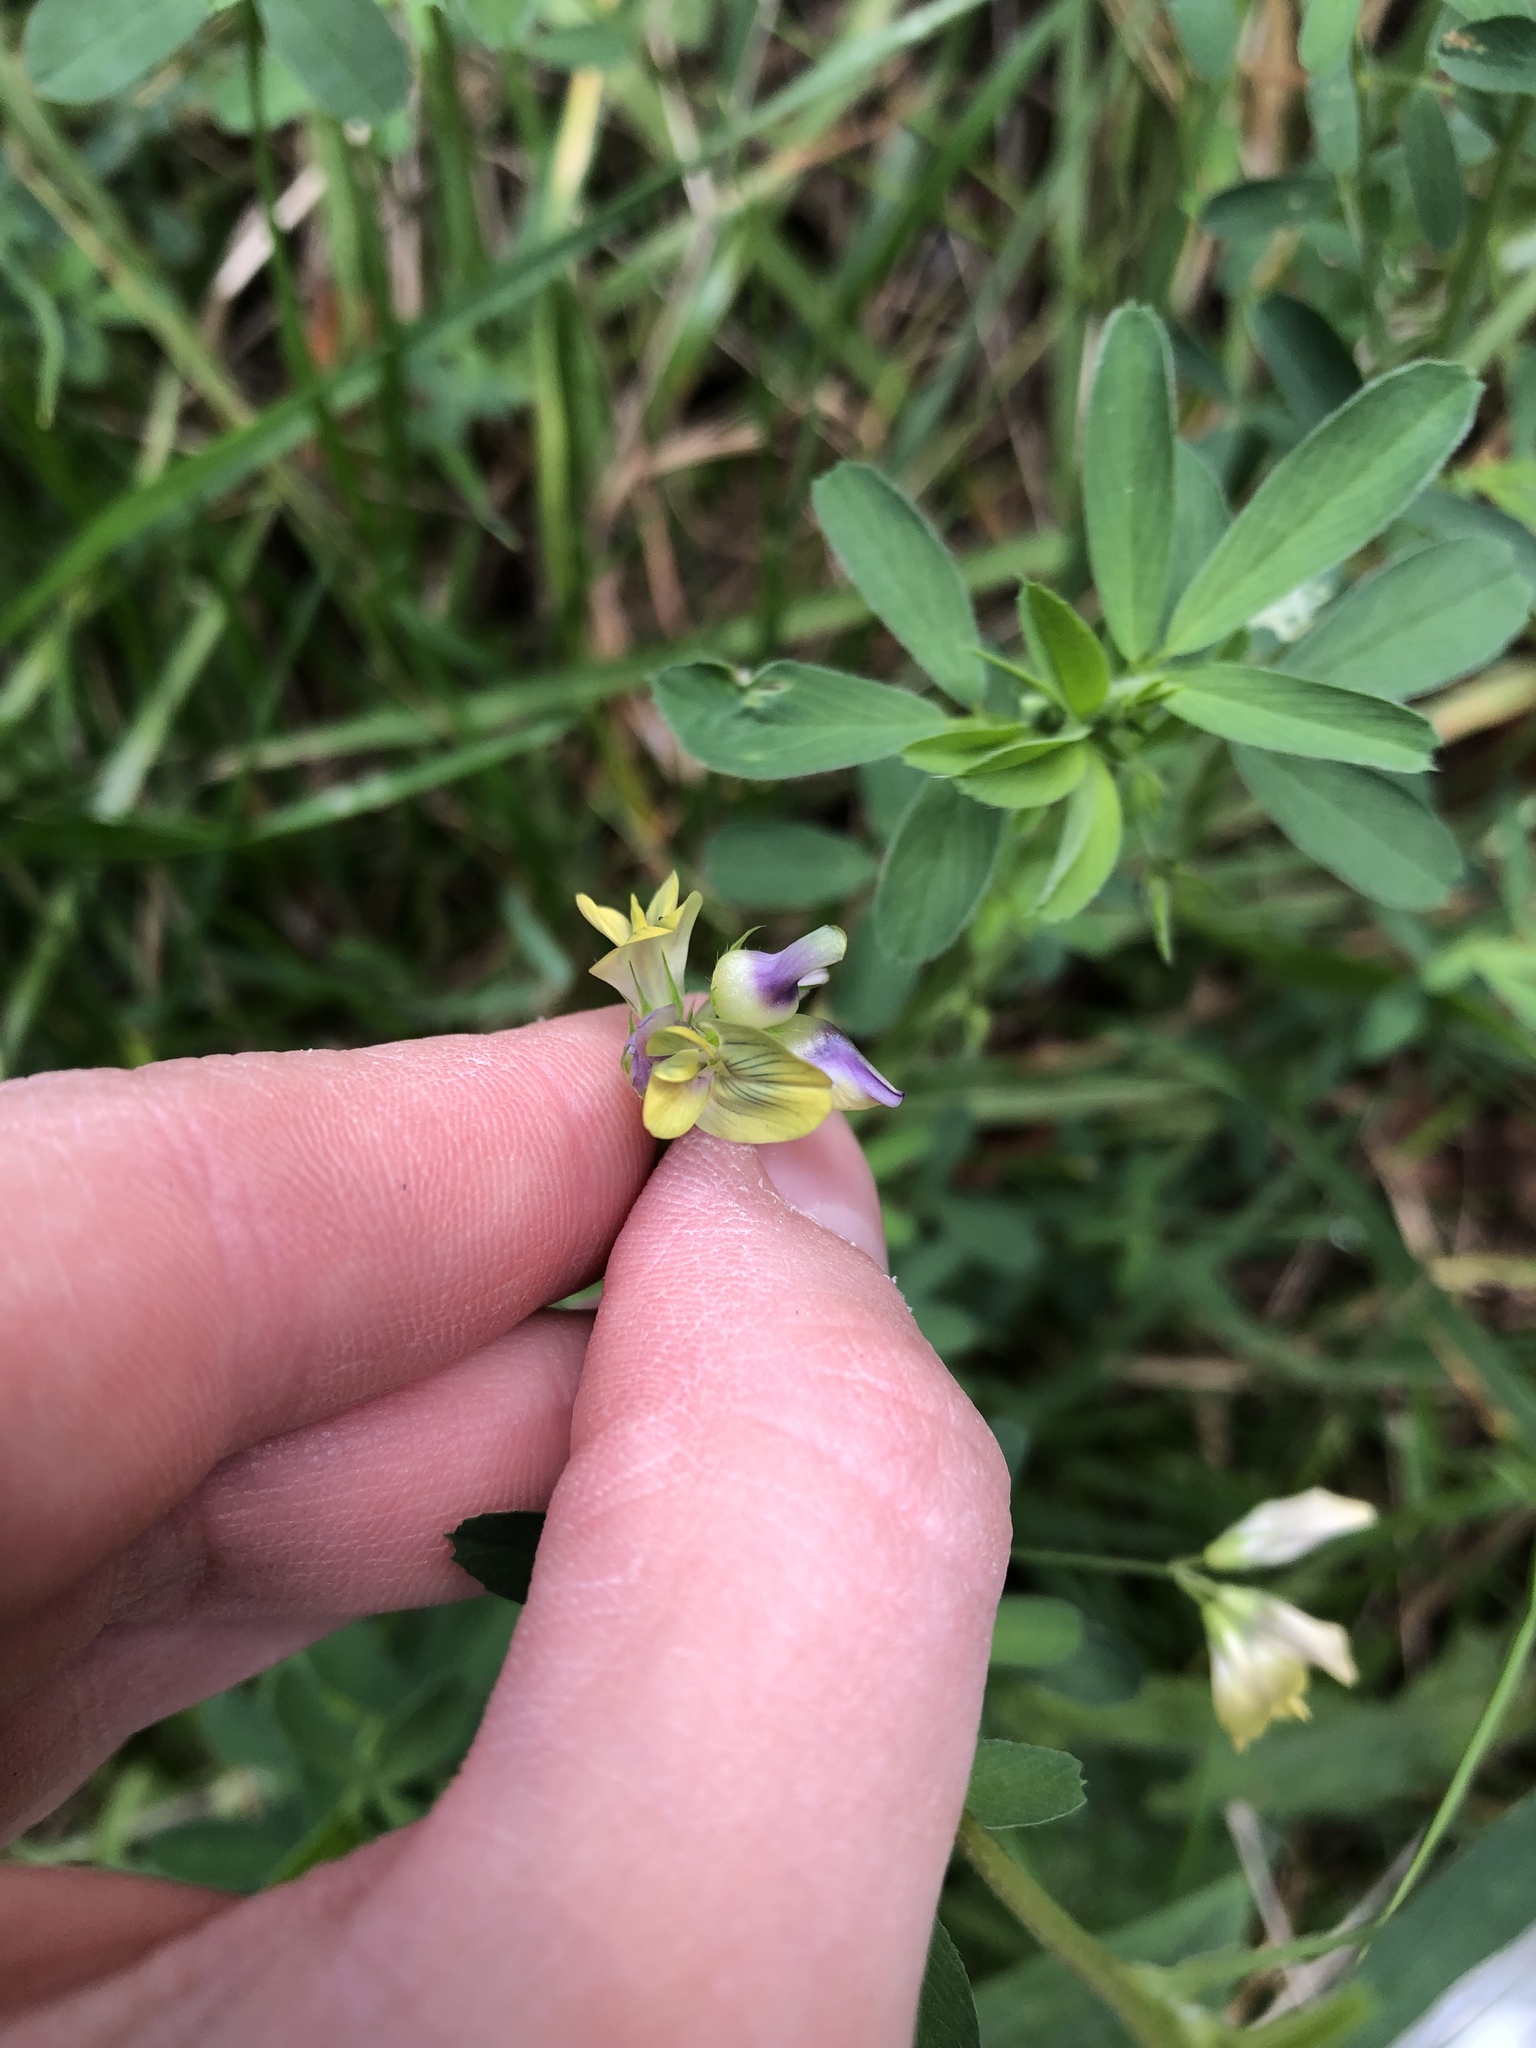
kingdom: Plantae
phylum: Tracheophyta
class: Magnoliopsida
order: Fabales
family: Fabaceae
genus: Medicago
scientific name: Medicago varia
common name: Sand lucerne
